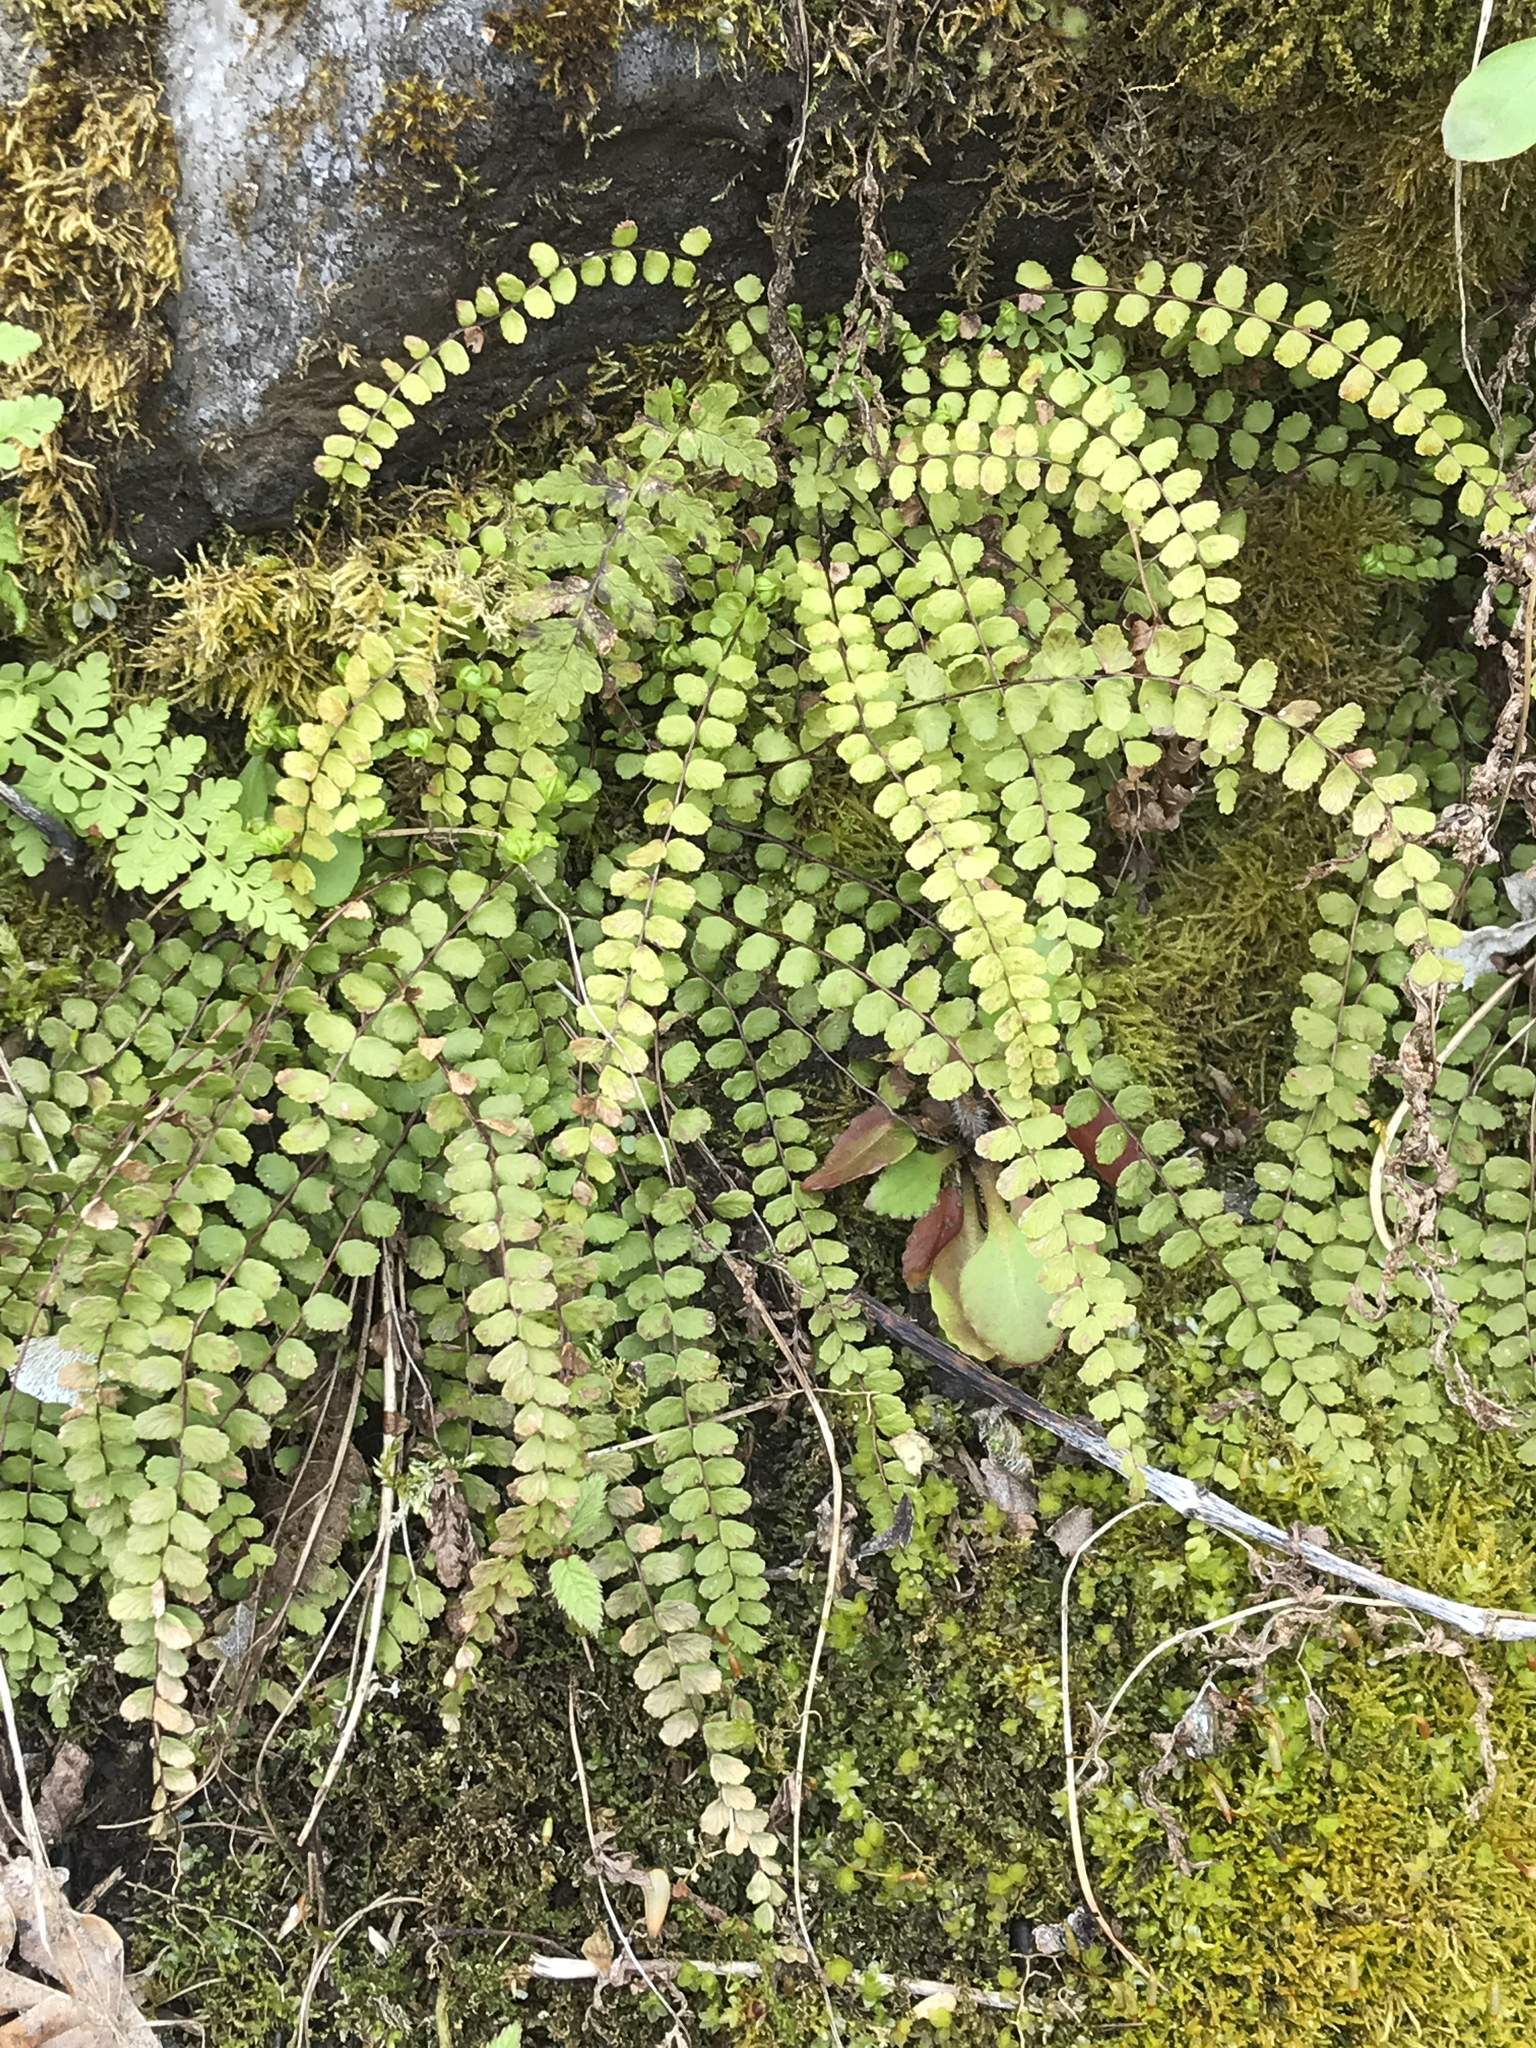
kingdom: Plantae
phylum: Tracheophyta
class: Polypodiopsida
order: Polypodiales
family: Aspleniaceae
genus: Asplenium
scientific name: Asplenium trichomanes
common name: Maidenhair spleenwort
